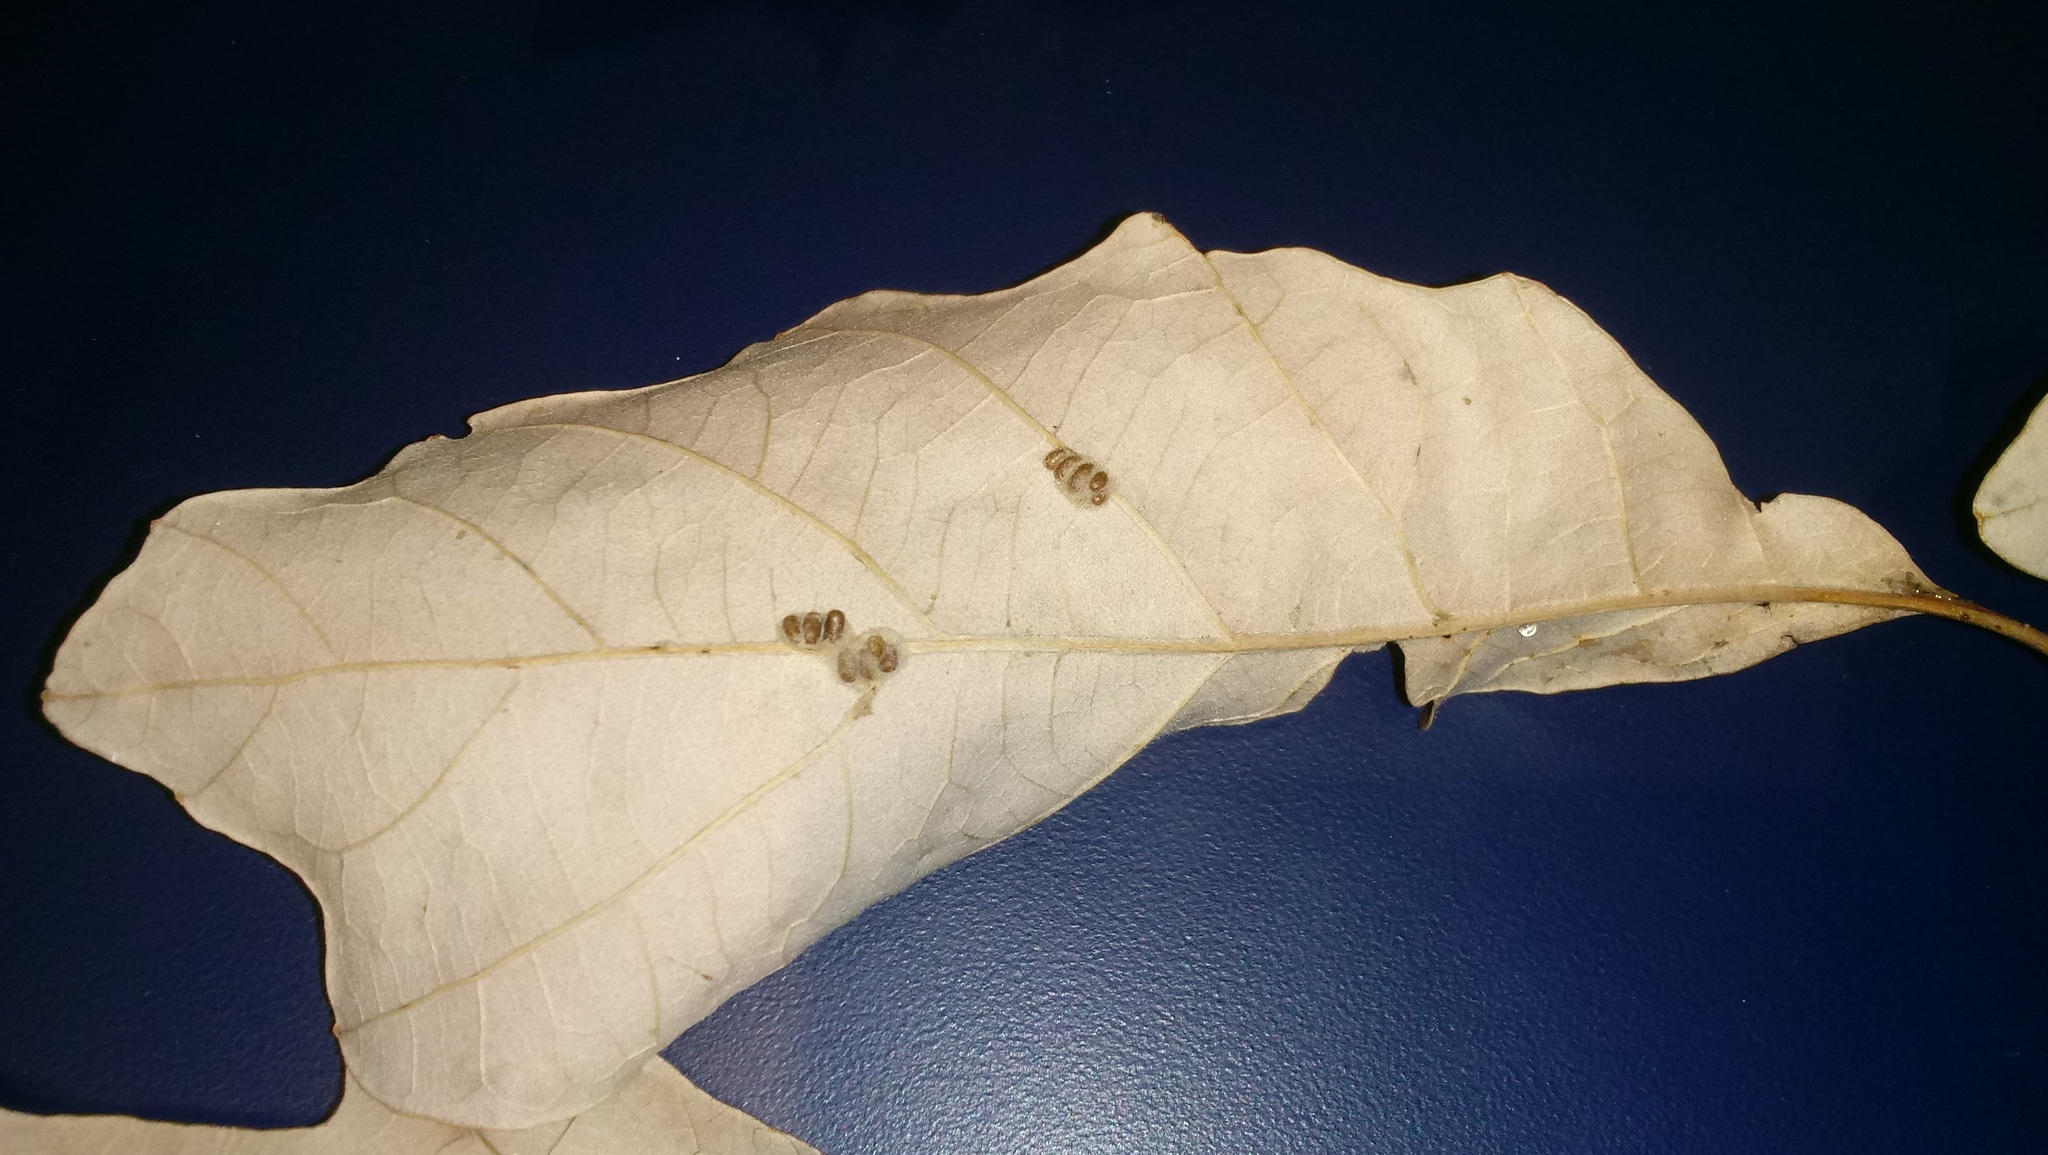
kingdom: Animalia
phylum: Arthropoda
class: Insecta
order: Hymenoptera
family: Cynipidae
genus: Andricus
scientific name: Andricus Druon ignotum
